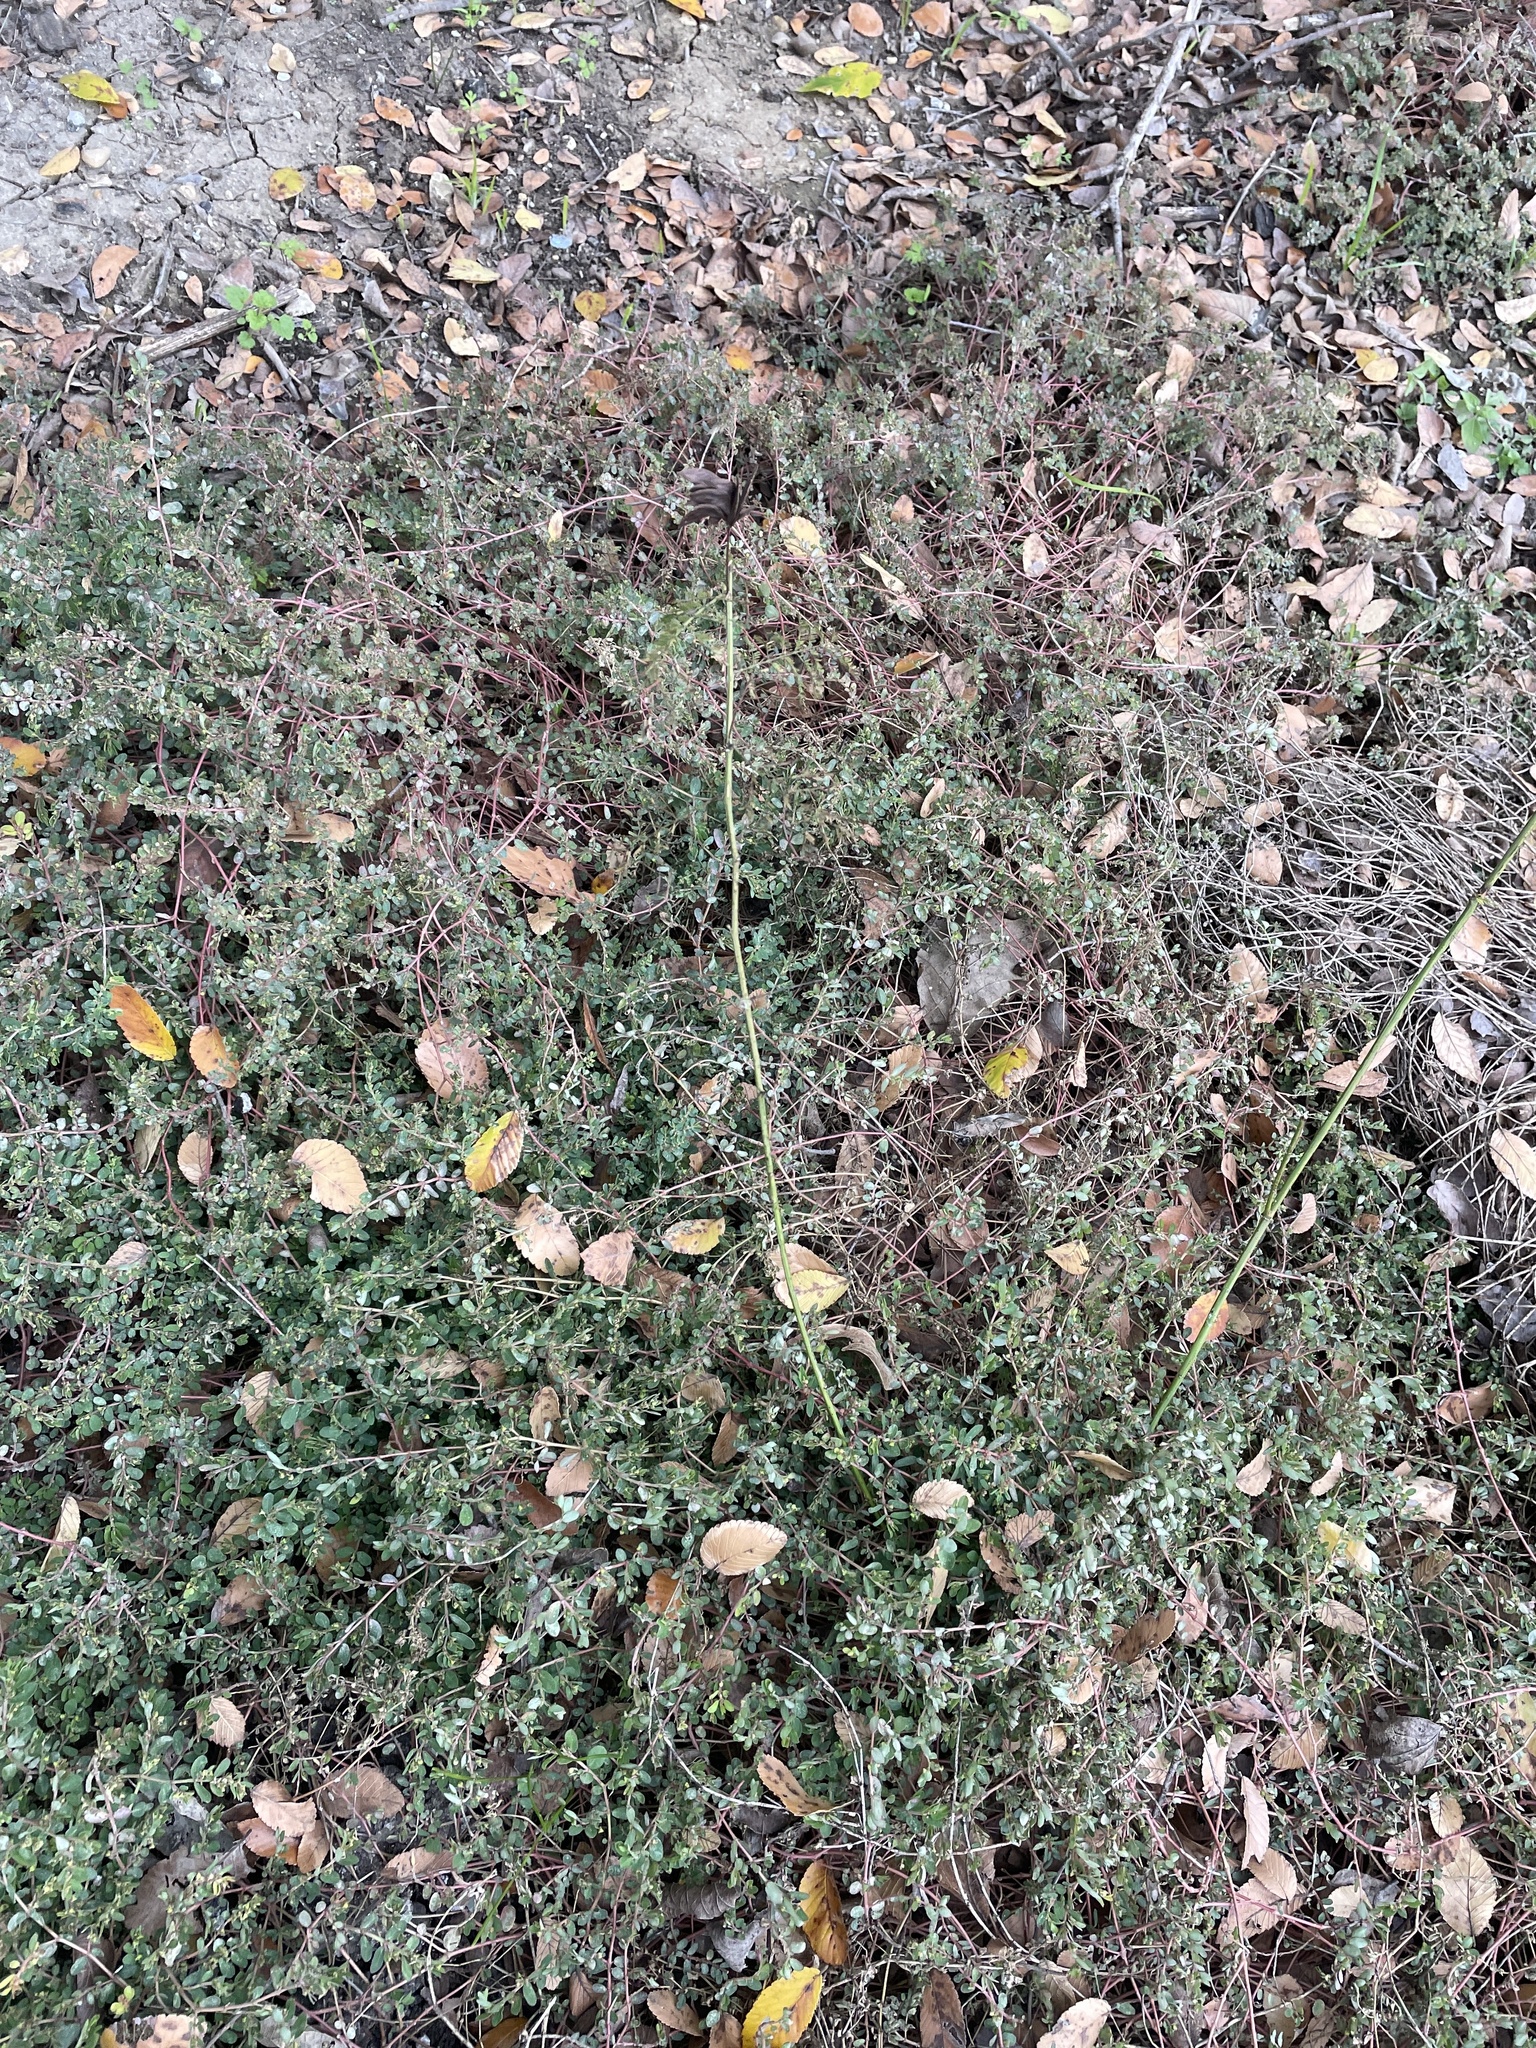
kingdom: Plantae
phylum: Tracheophyta
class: Magnoliopsida
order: Fabales
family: Fabaceae
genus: Desmanthus
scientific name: Desmanthus illinoensis
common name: Illinois bundle-flower
